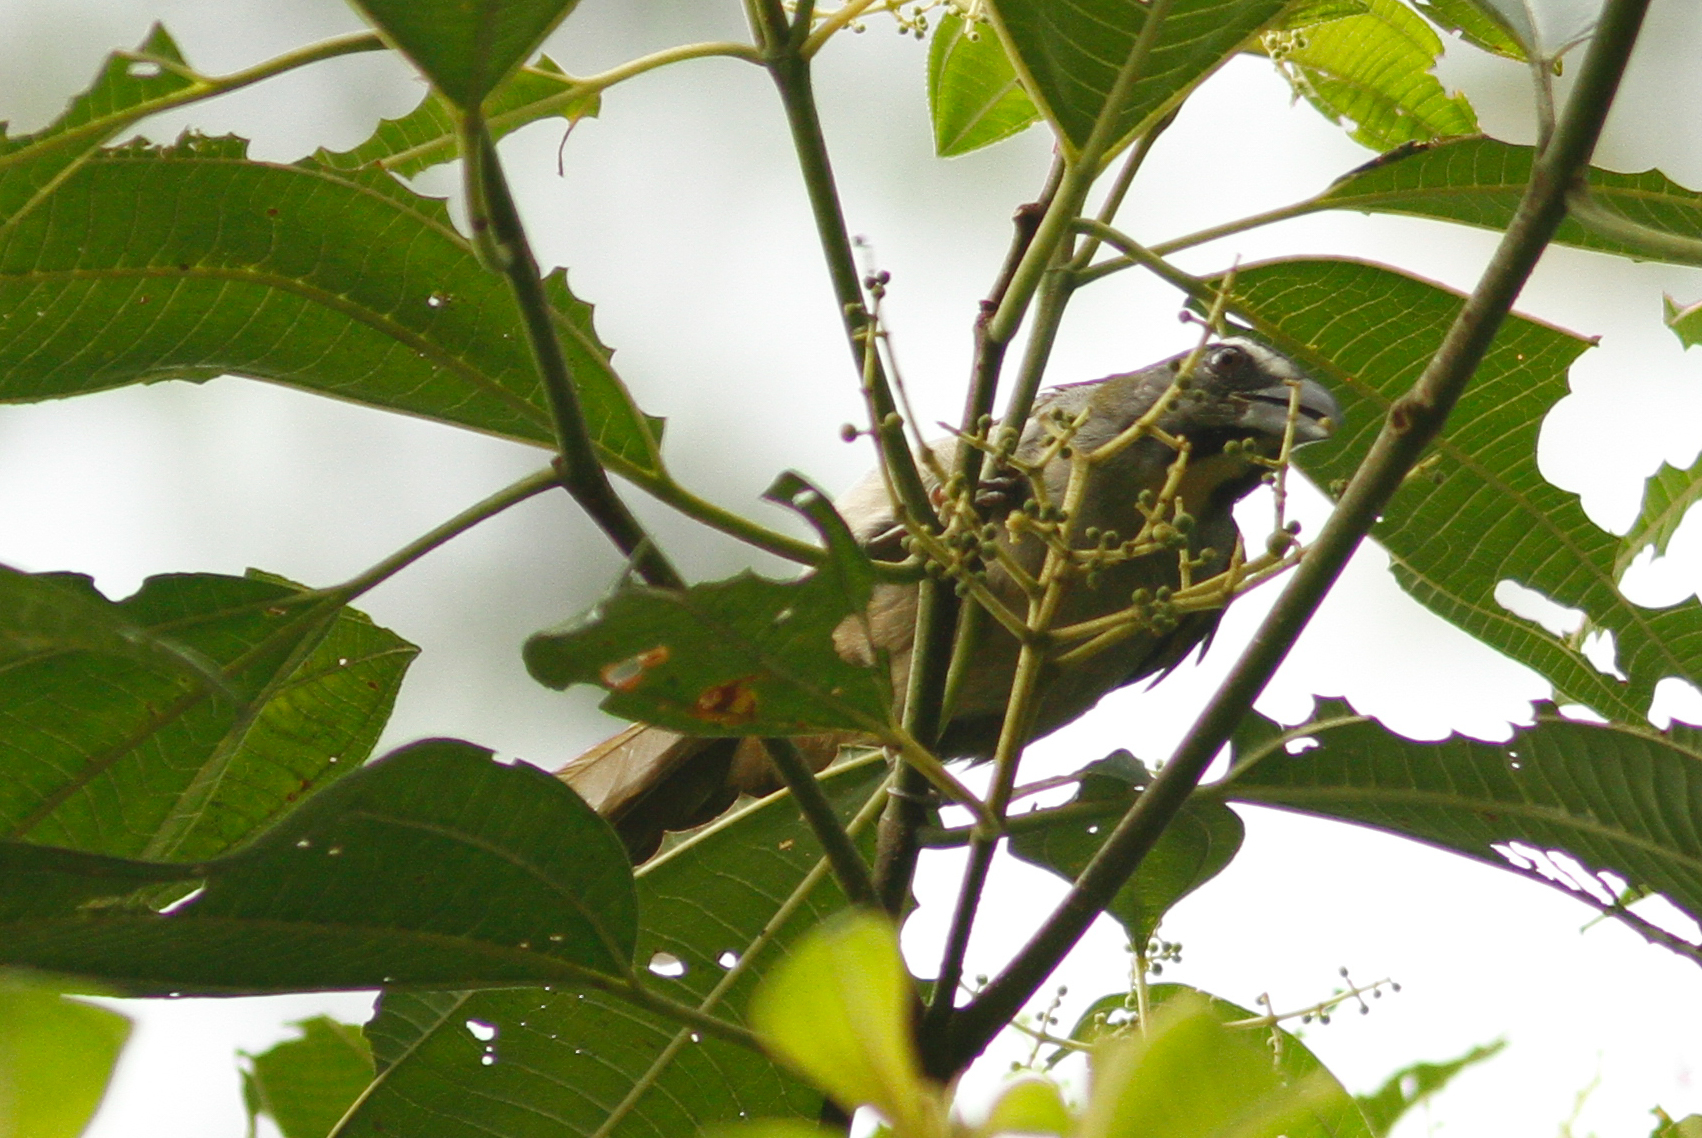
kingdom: Animalia
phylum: Chordata
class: Aves
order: Passeriformes
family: Thraupidae
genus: Saltator
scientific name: Saltator maximus
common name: Buff-throated saltator
